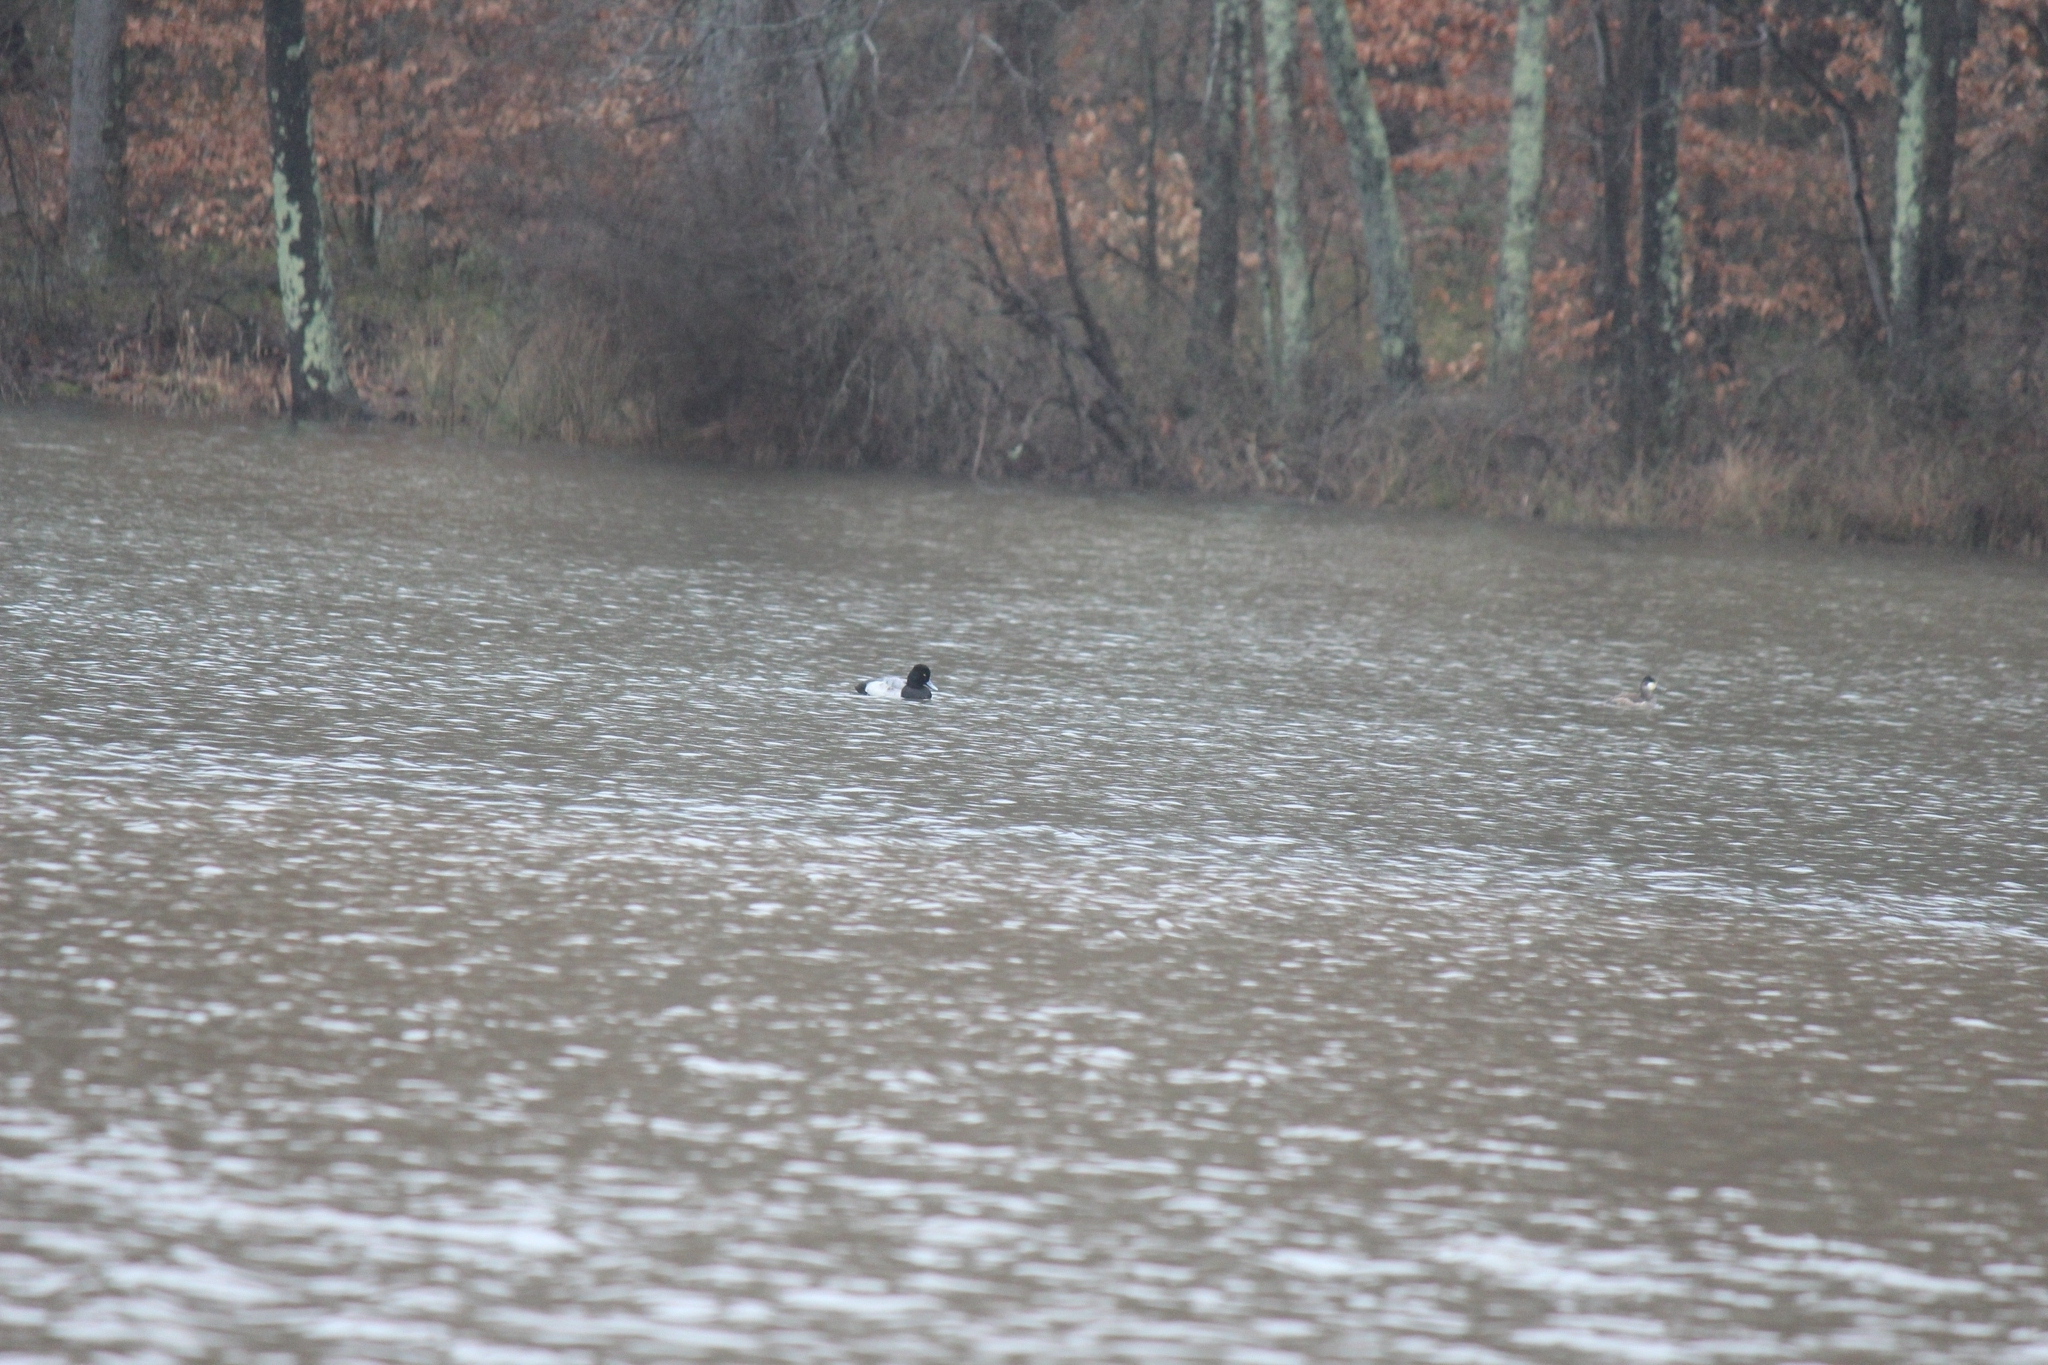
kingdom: Animalia
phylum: Chordata
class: Aves
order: Anseriformes
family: Anatidae
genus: Aythya
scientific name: Aythya affinis
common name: Lesser scaup
